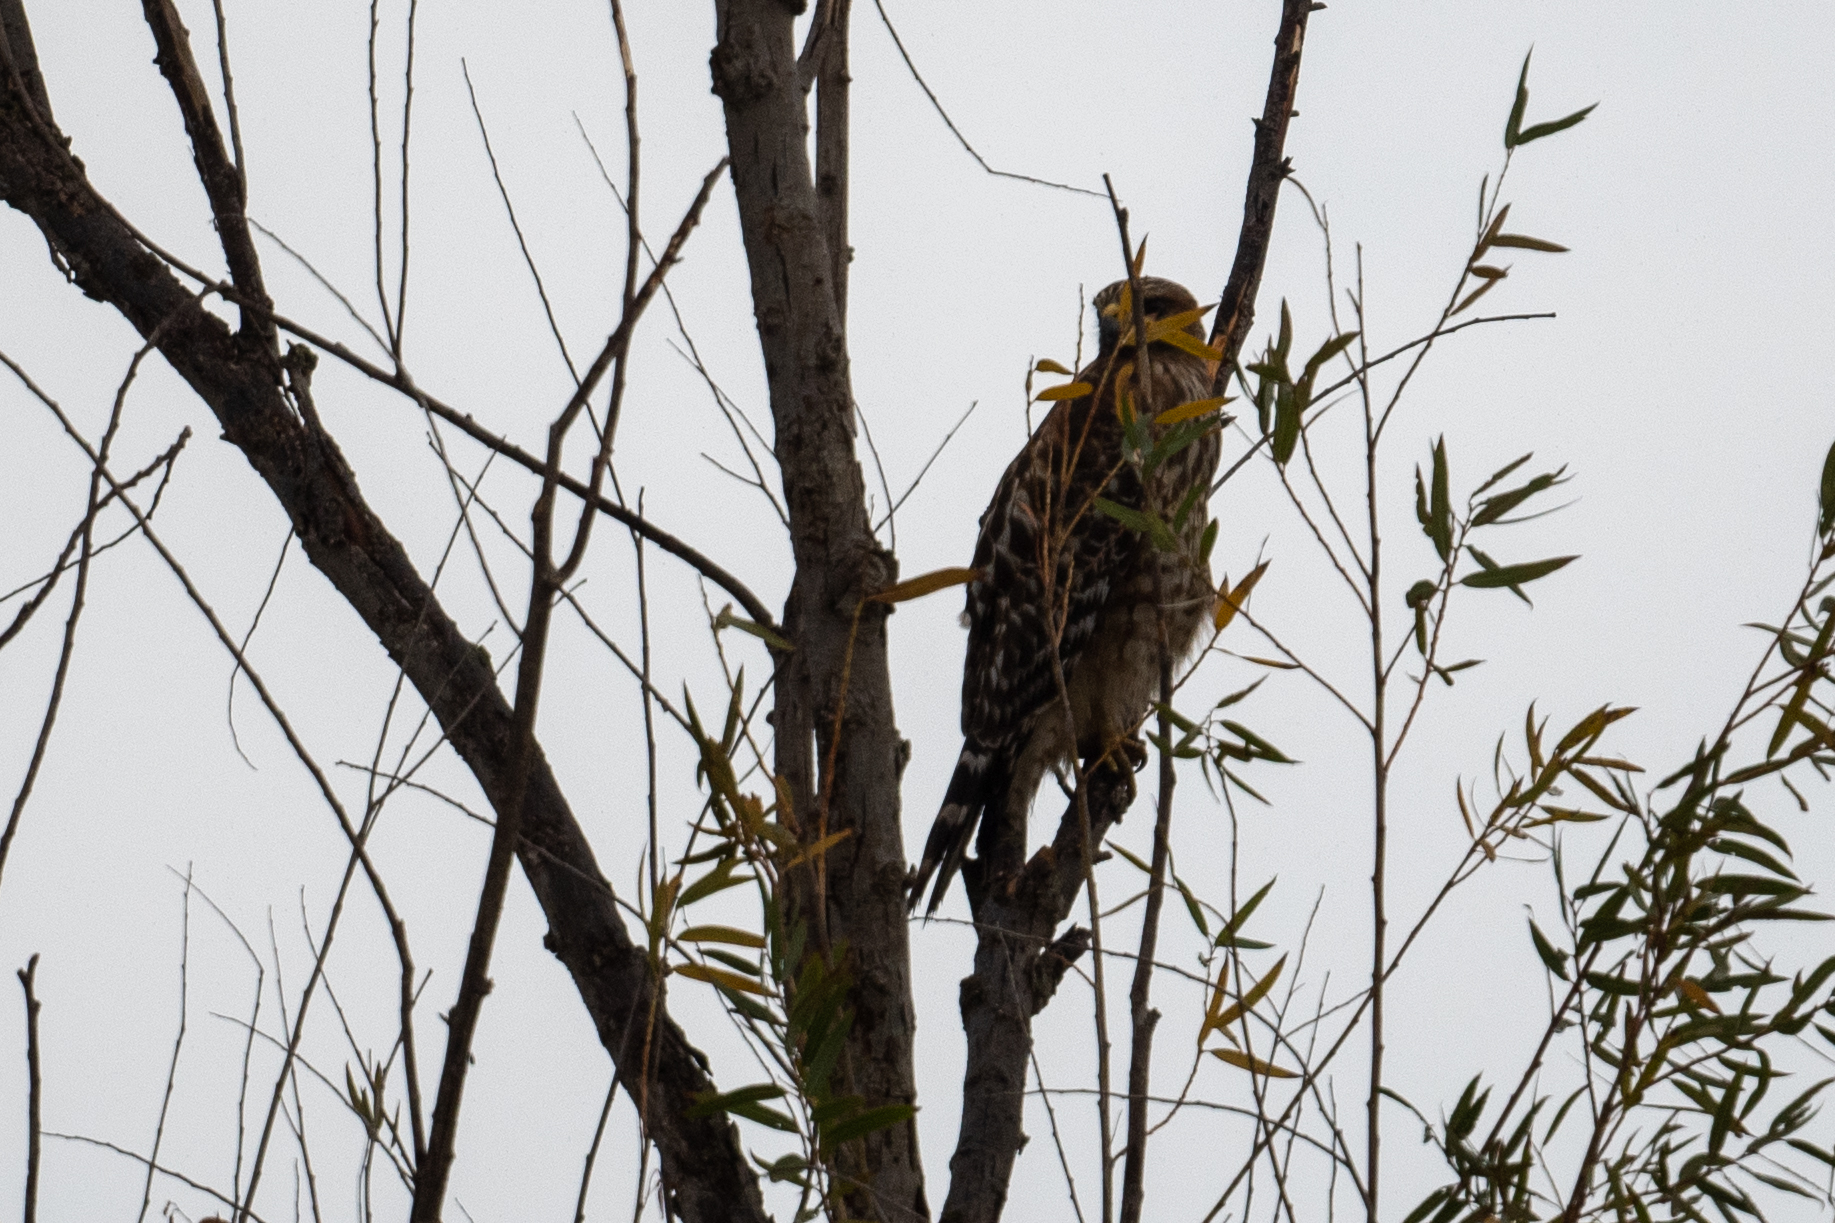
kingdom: Animalia
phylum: Chordata
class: Aves
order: Accipitriformes
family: Accipitridae
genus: Buteo
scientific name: Buteo lineatus
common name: Red-shouldered hawk
